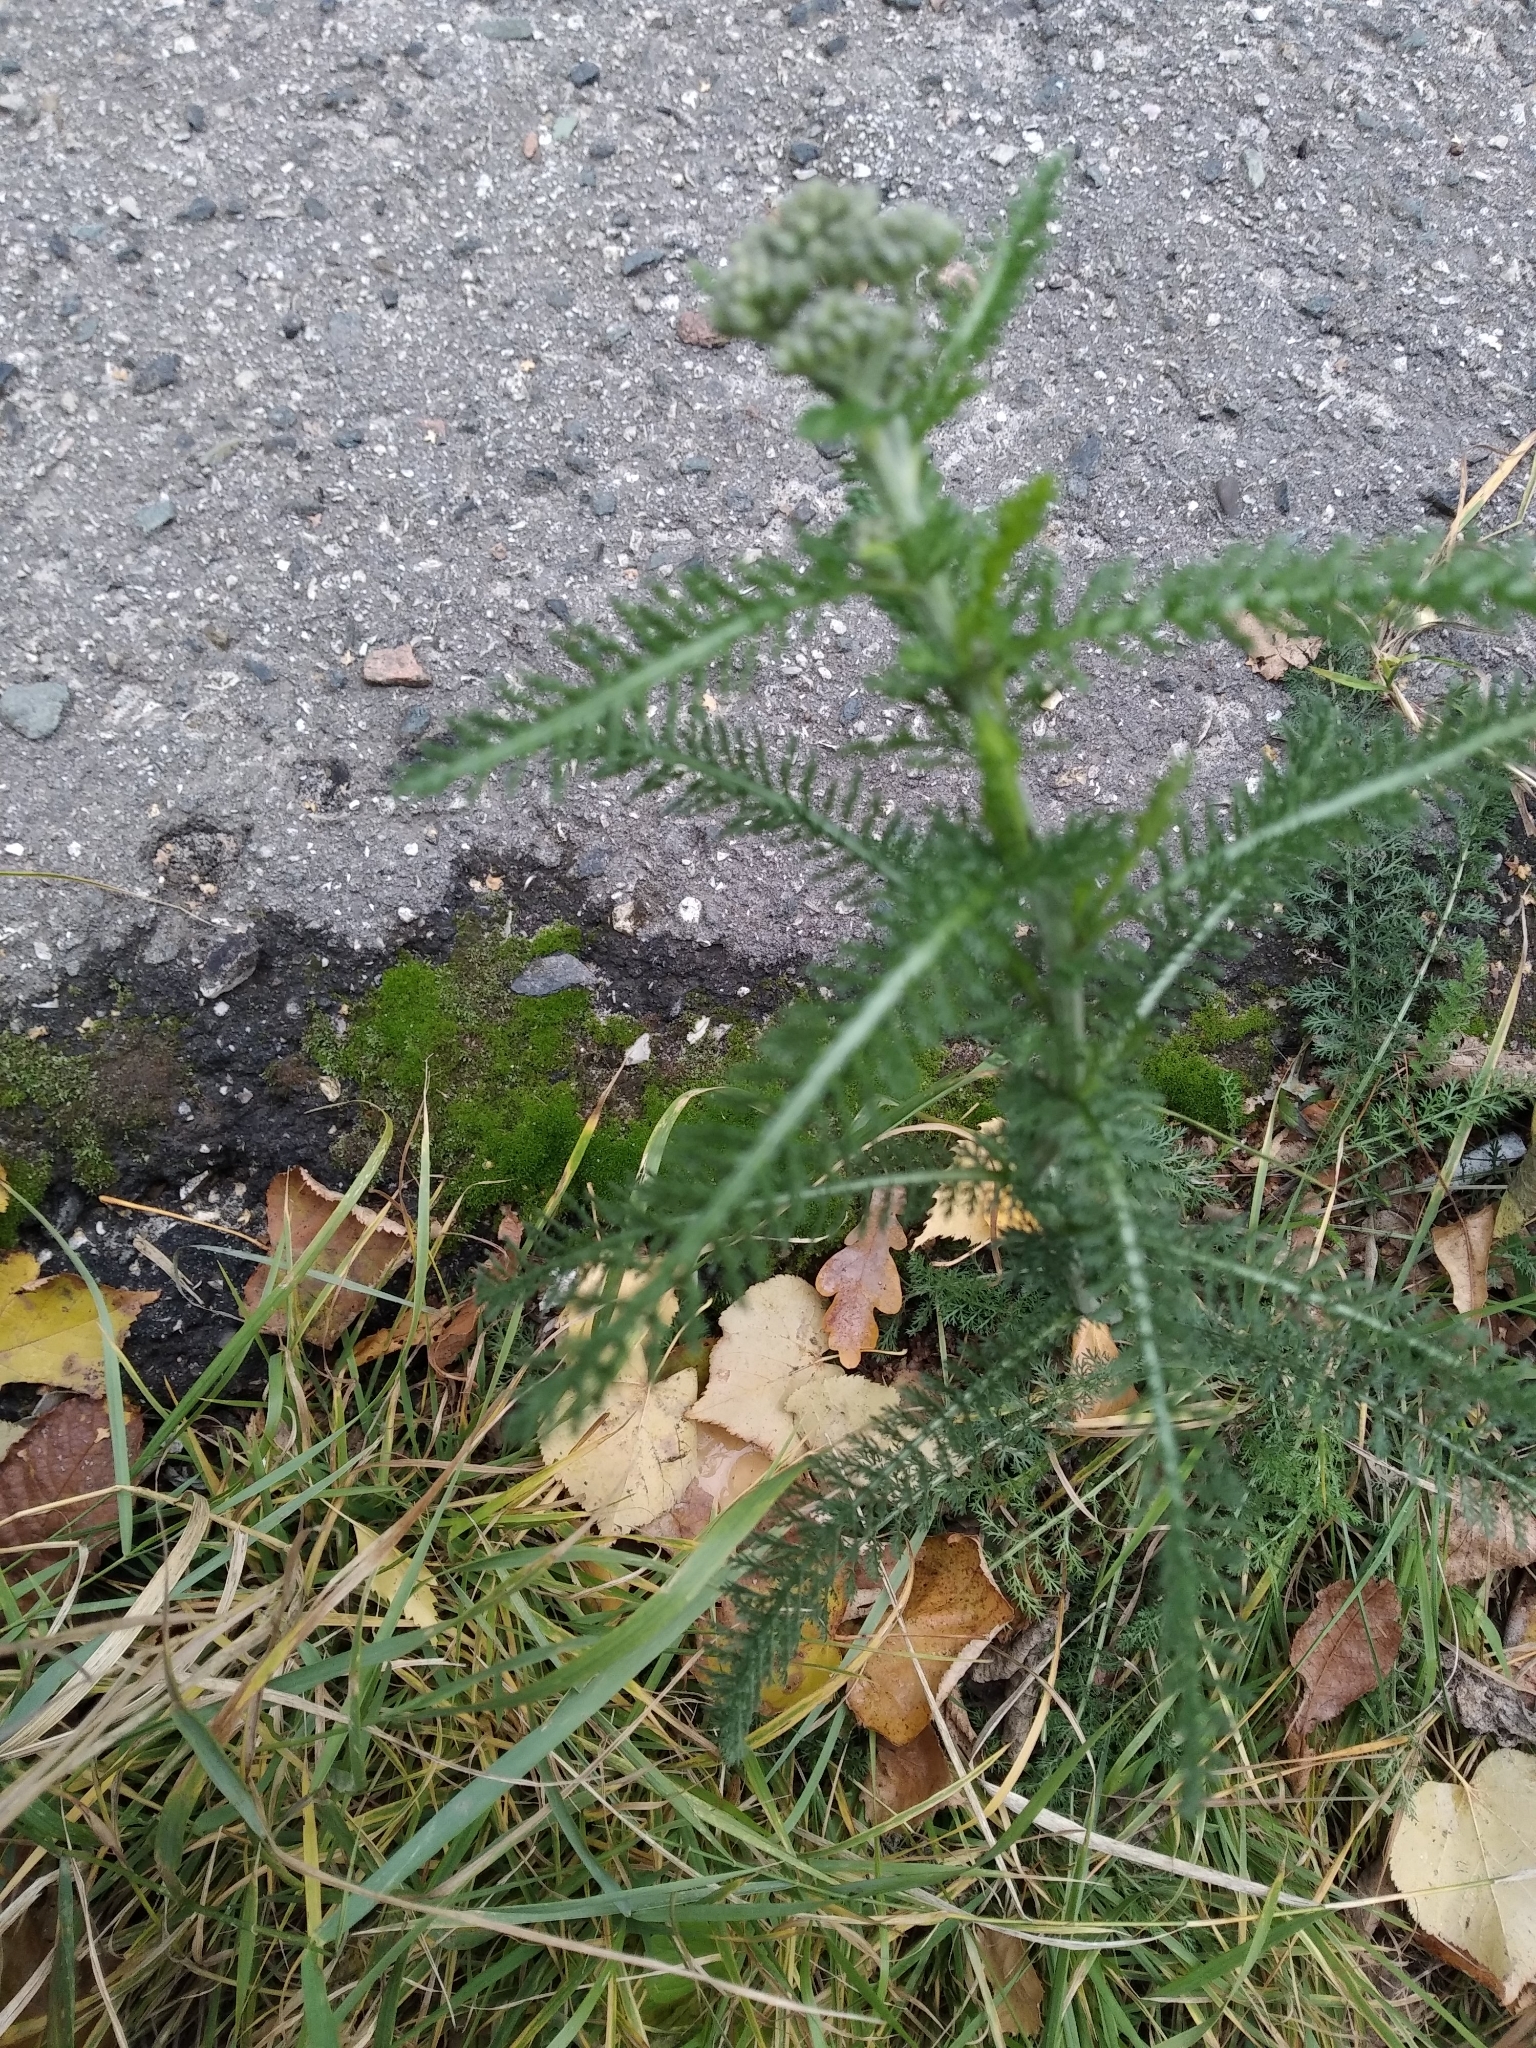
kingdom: Plantae
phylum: Tracheophyta
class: Magnoliopsida
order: Asterales
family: Asteraceae
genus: Achillea
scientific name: Achillea millefolium
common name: Yarrow
